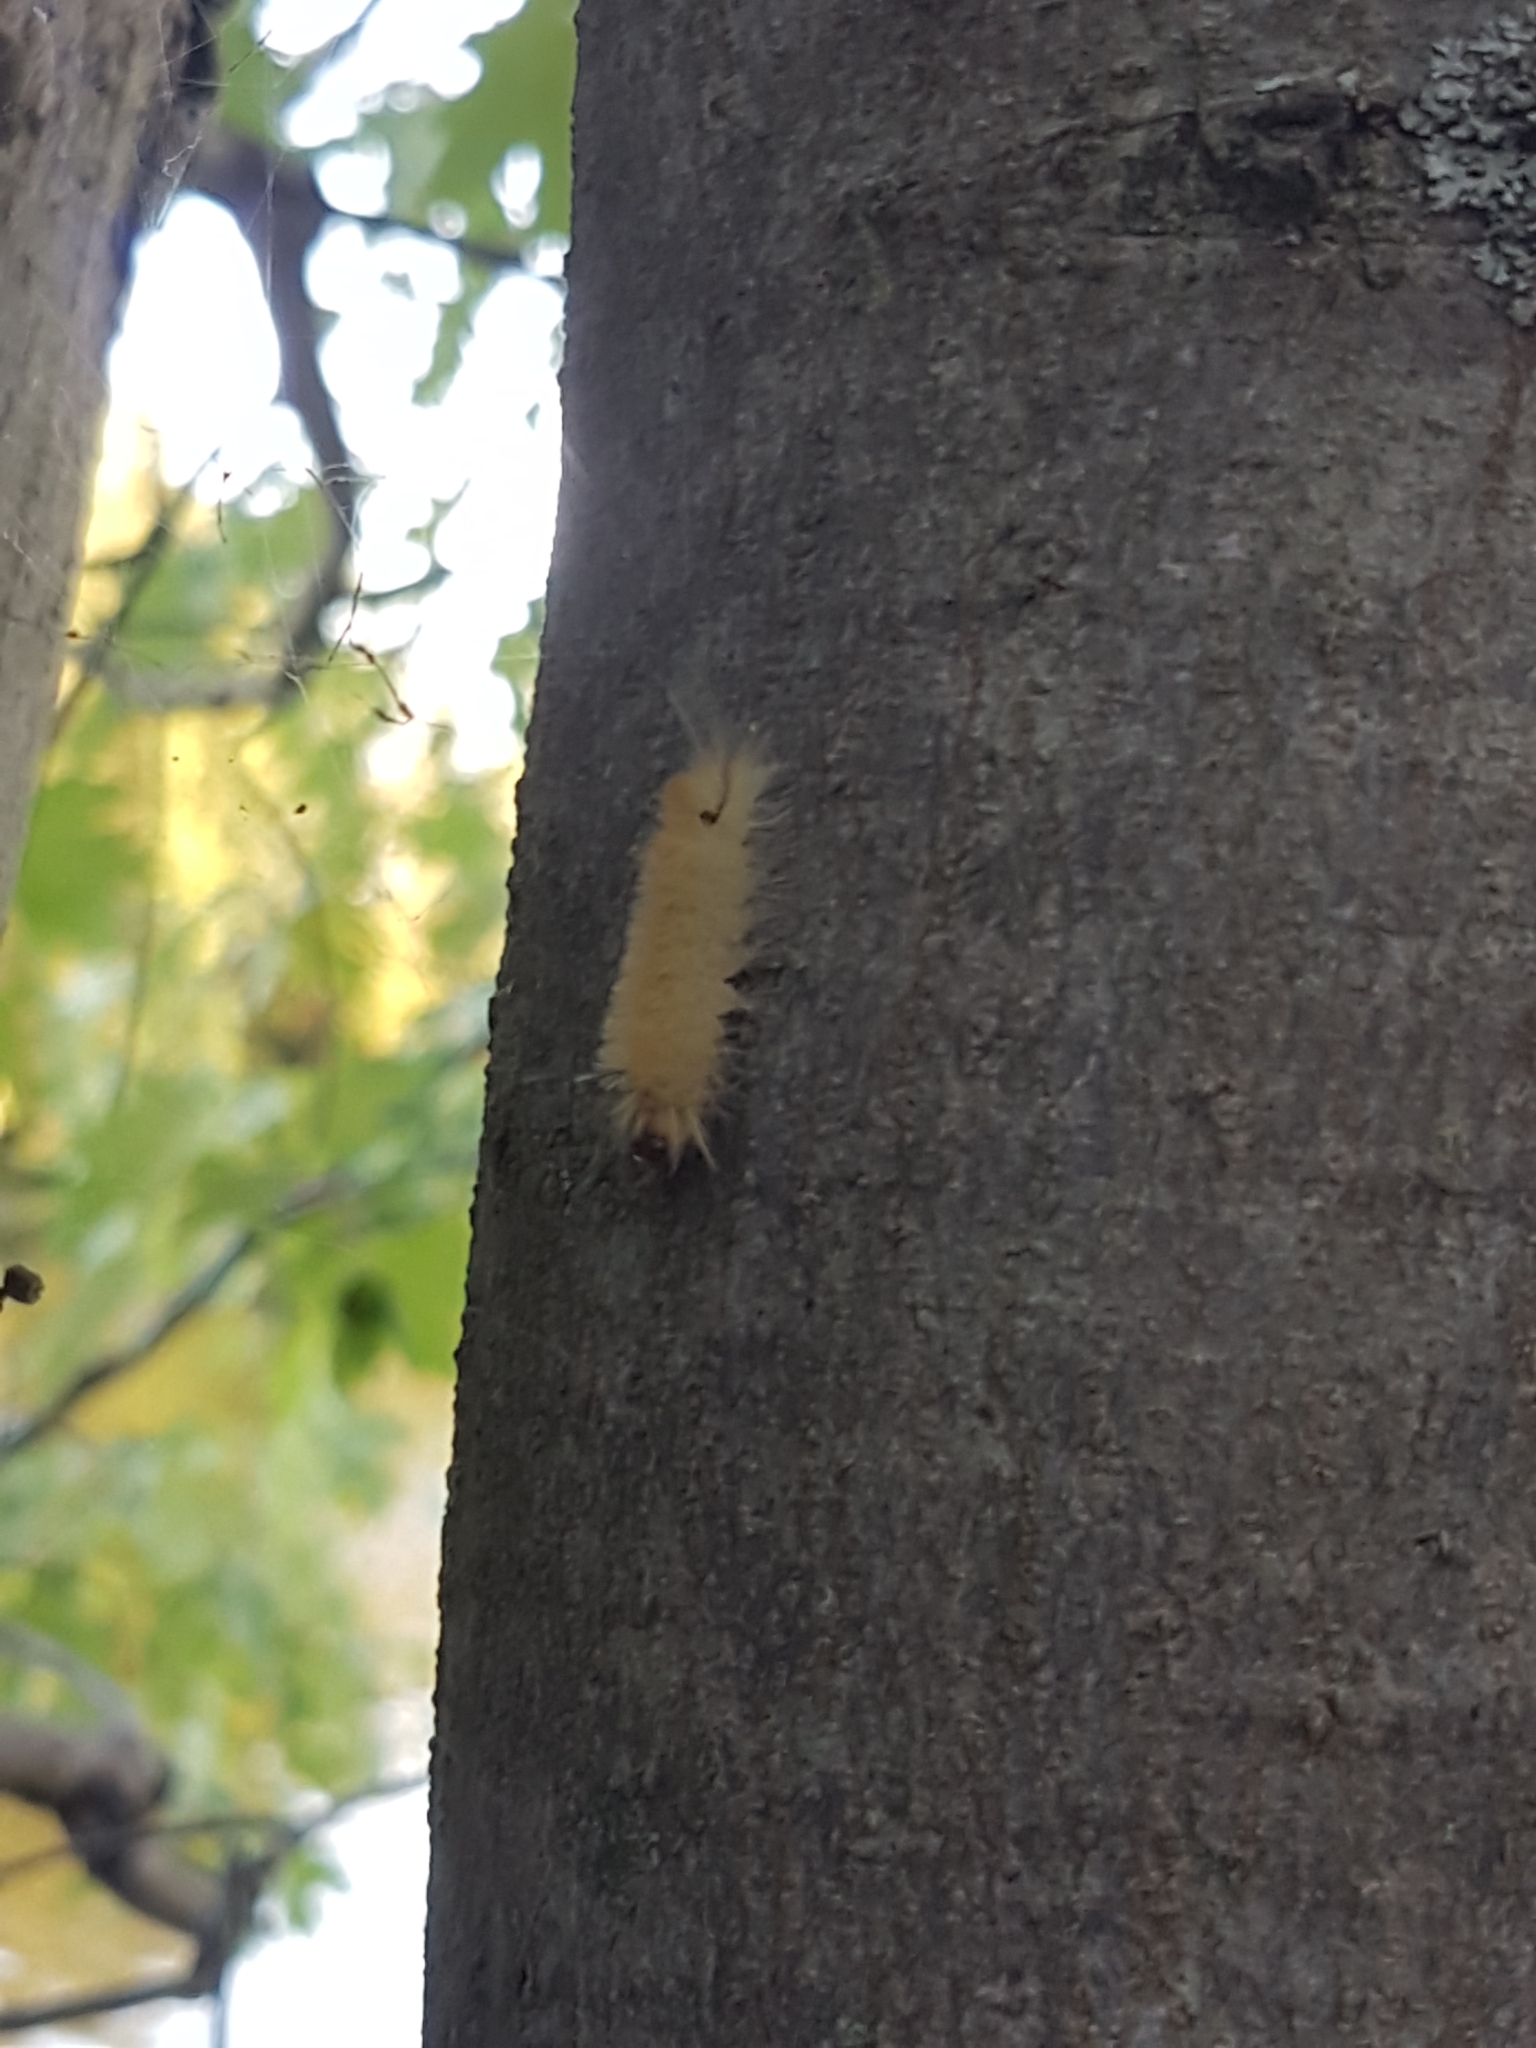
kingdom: Animalia
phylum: Arthropoda
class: Insecta
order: Lepidoptera
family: Erebidae
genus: Halysidota
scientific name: Halysidota tessellaris
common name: Banded tussock moth
